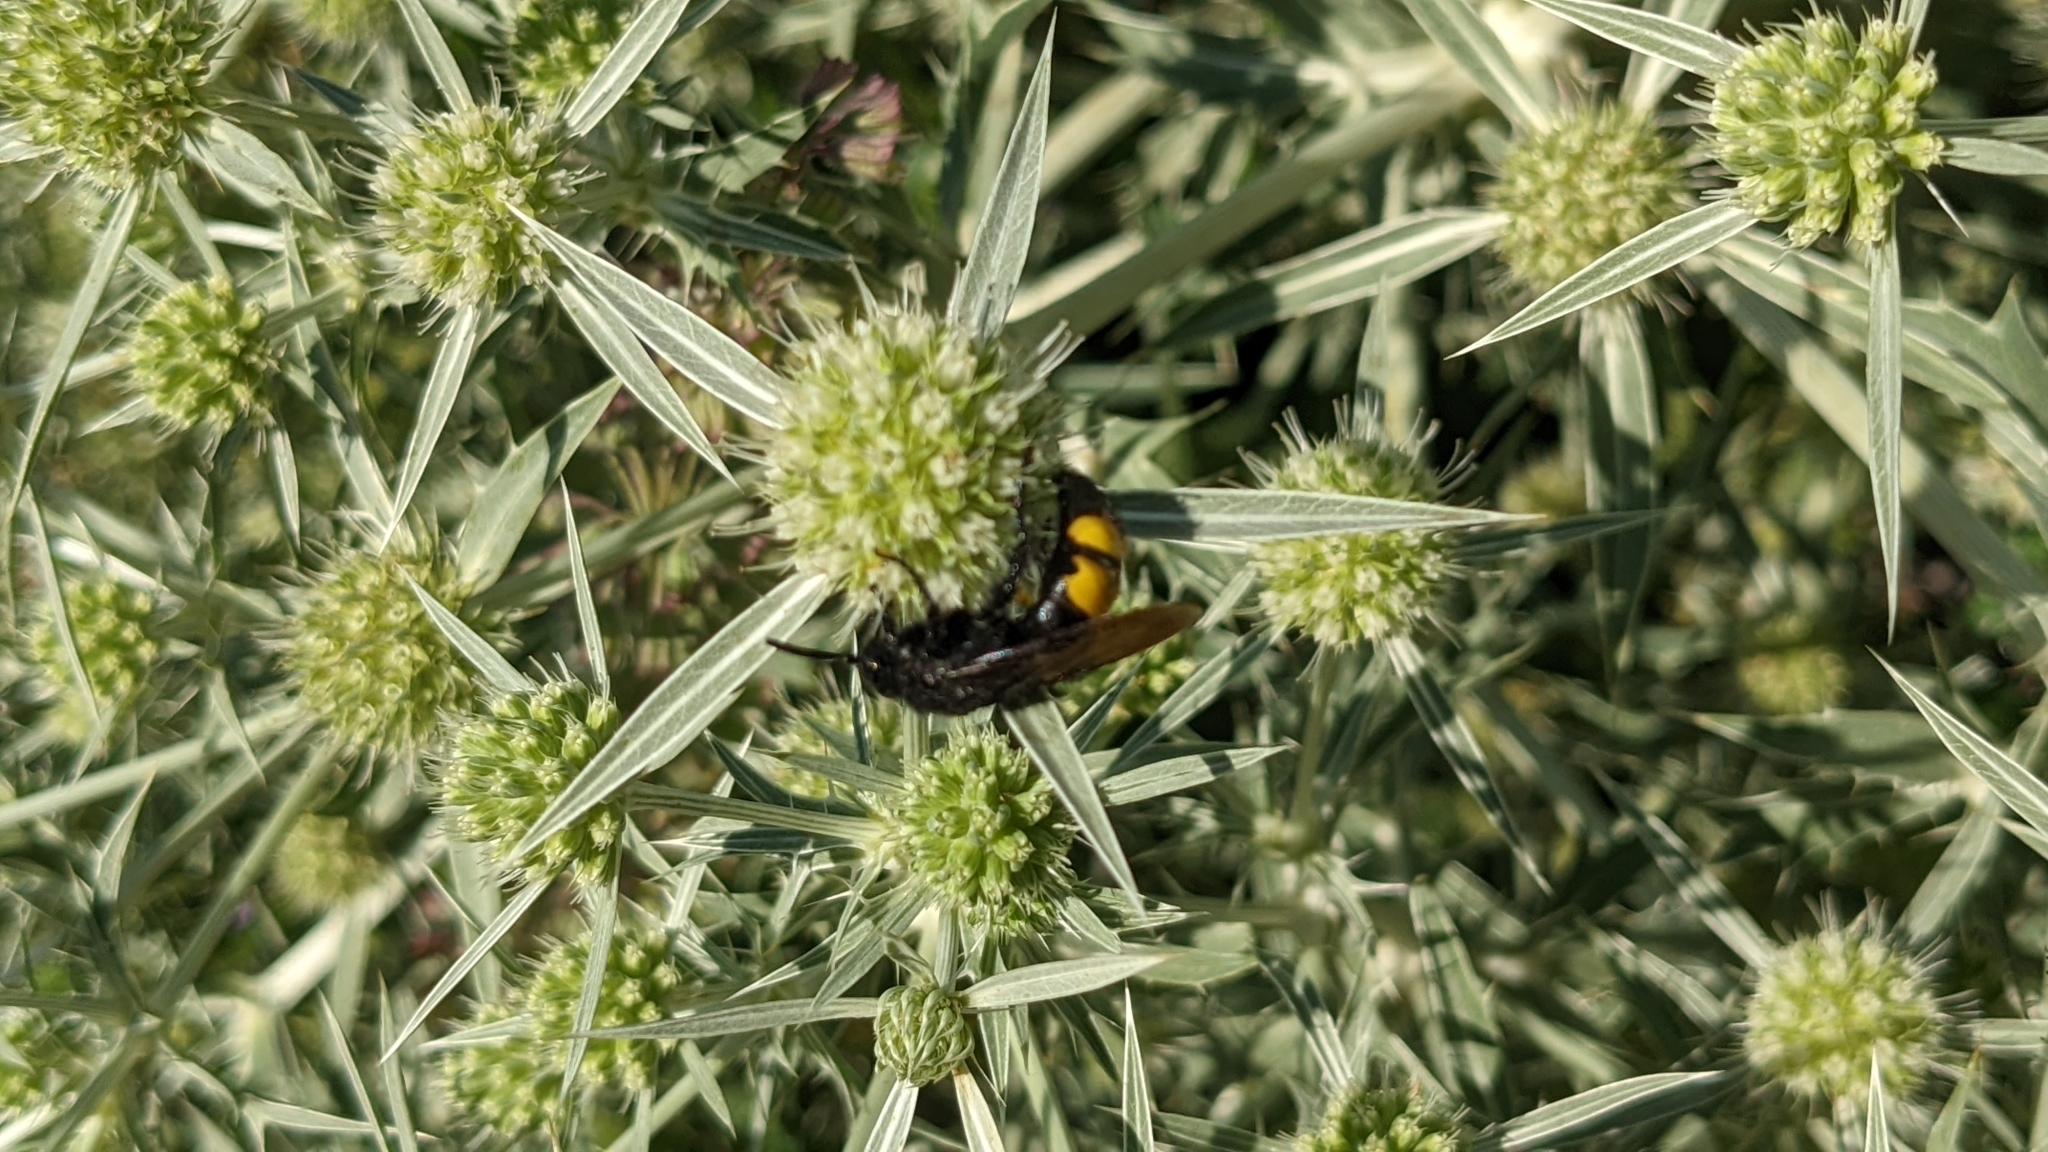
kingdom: Animalia
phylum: Arthropoda
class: Insecta
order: Hymenoptera
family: Scoliidae
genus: Scolia
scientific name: Scolia hirta
